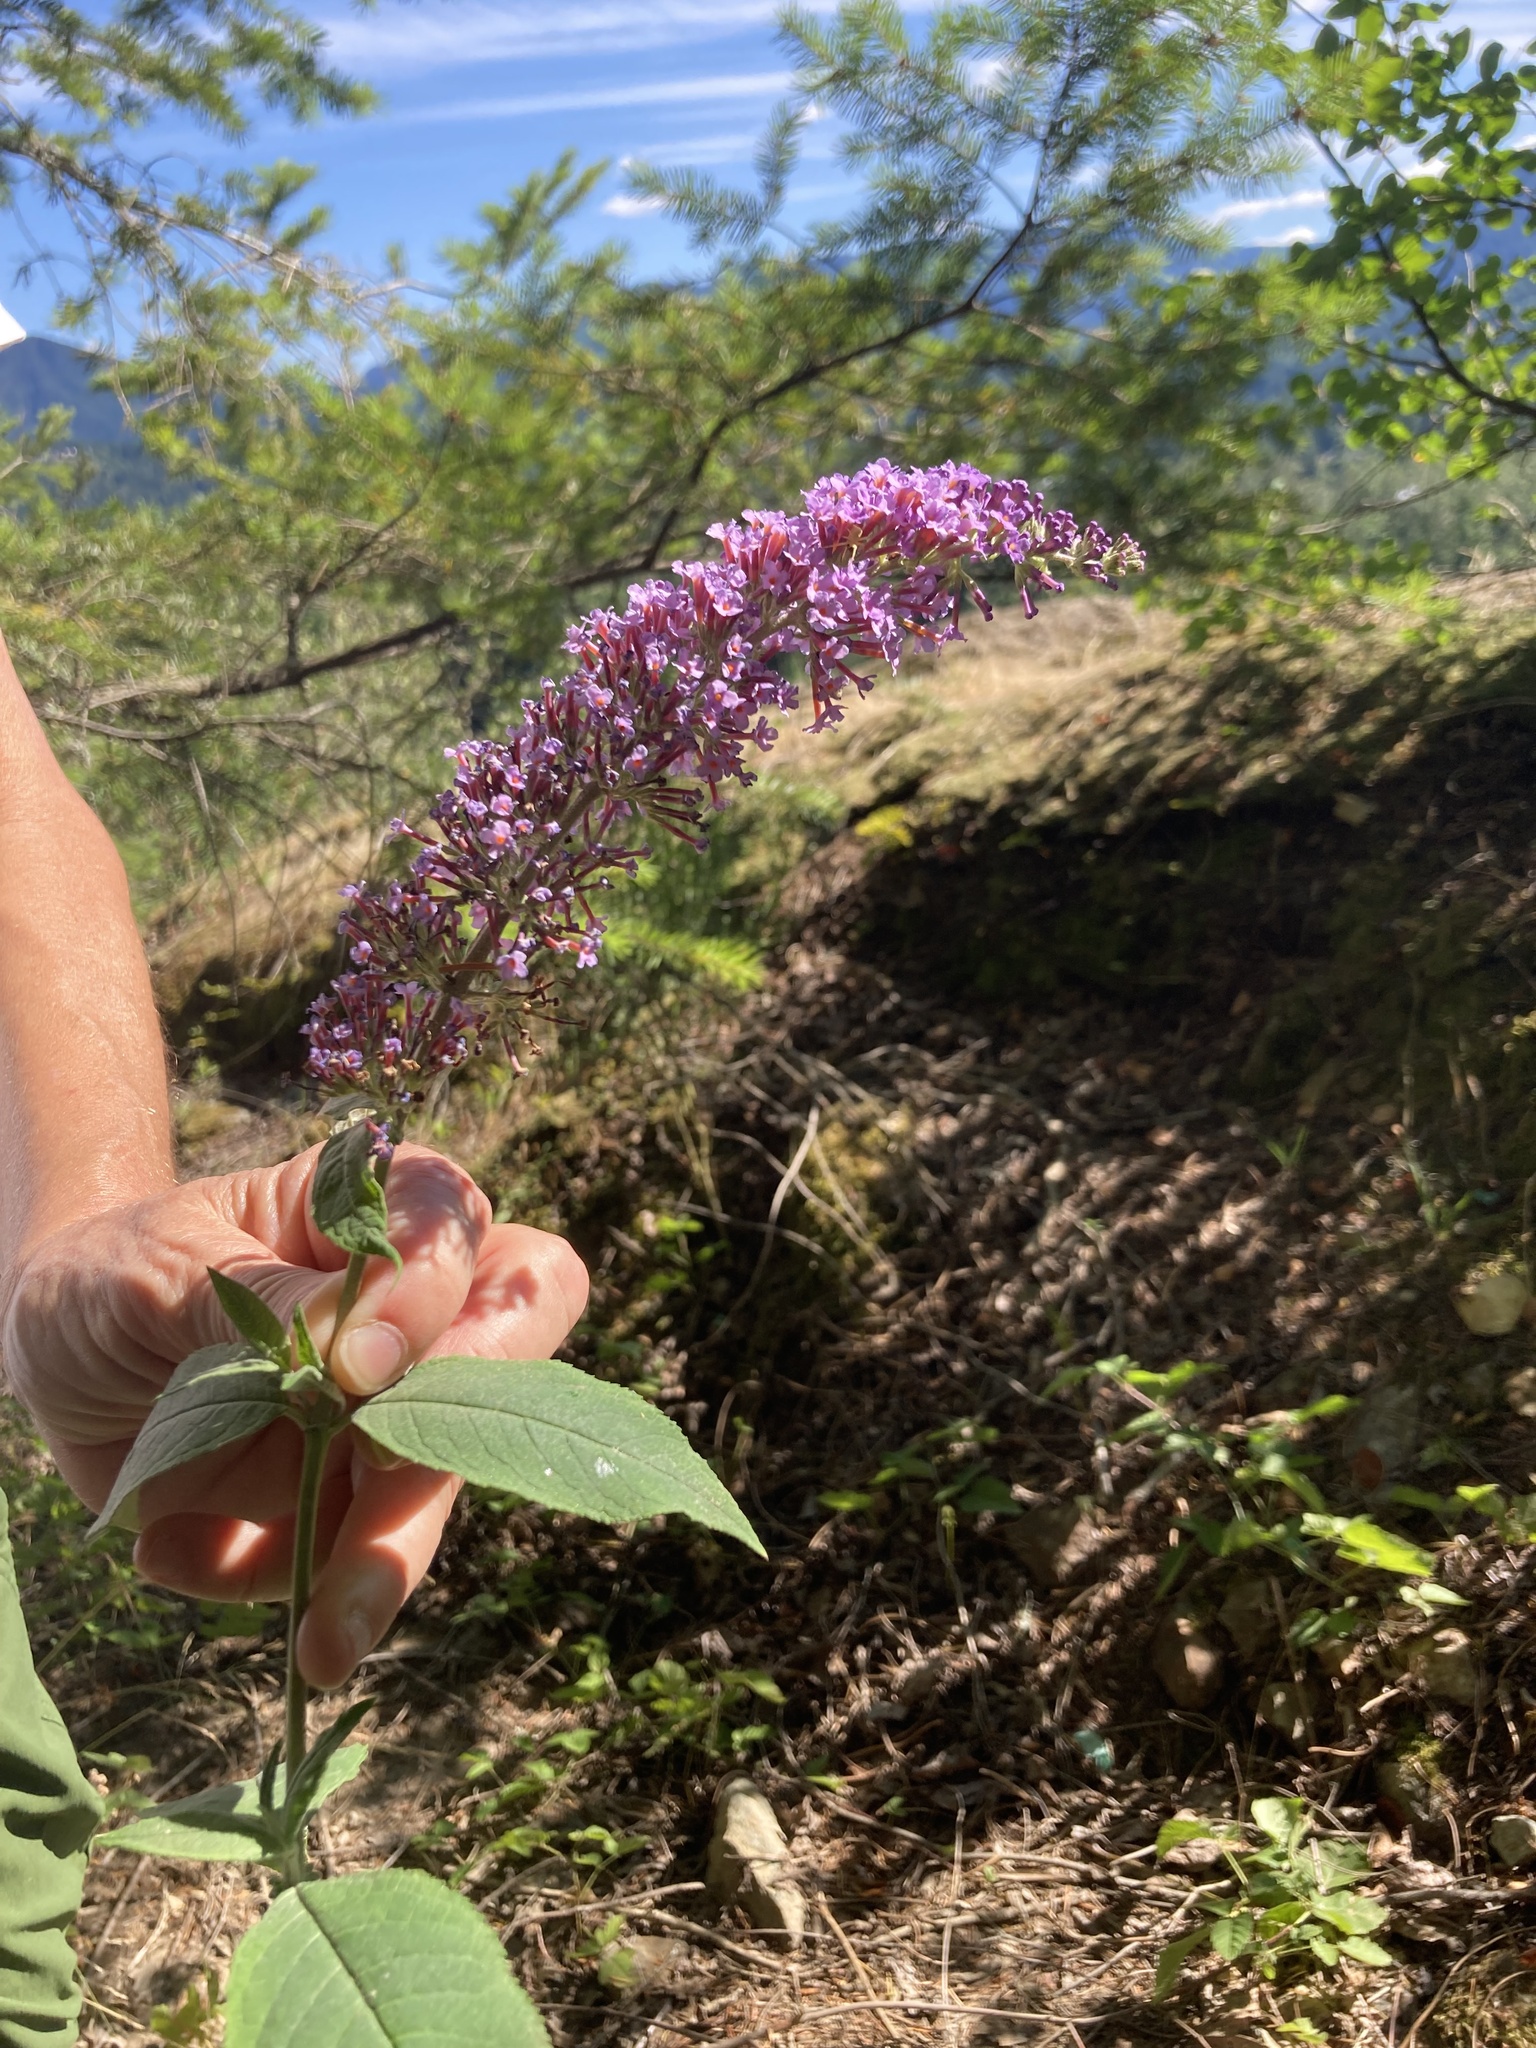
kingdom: Plantae
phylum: Tracheophyta
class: Magnoliopsida
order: Lamiales
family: Scrophulariaceae
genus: Buddleja
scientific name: Buddleja davidii
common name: Butterfly-bush
